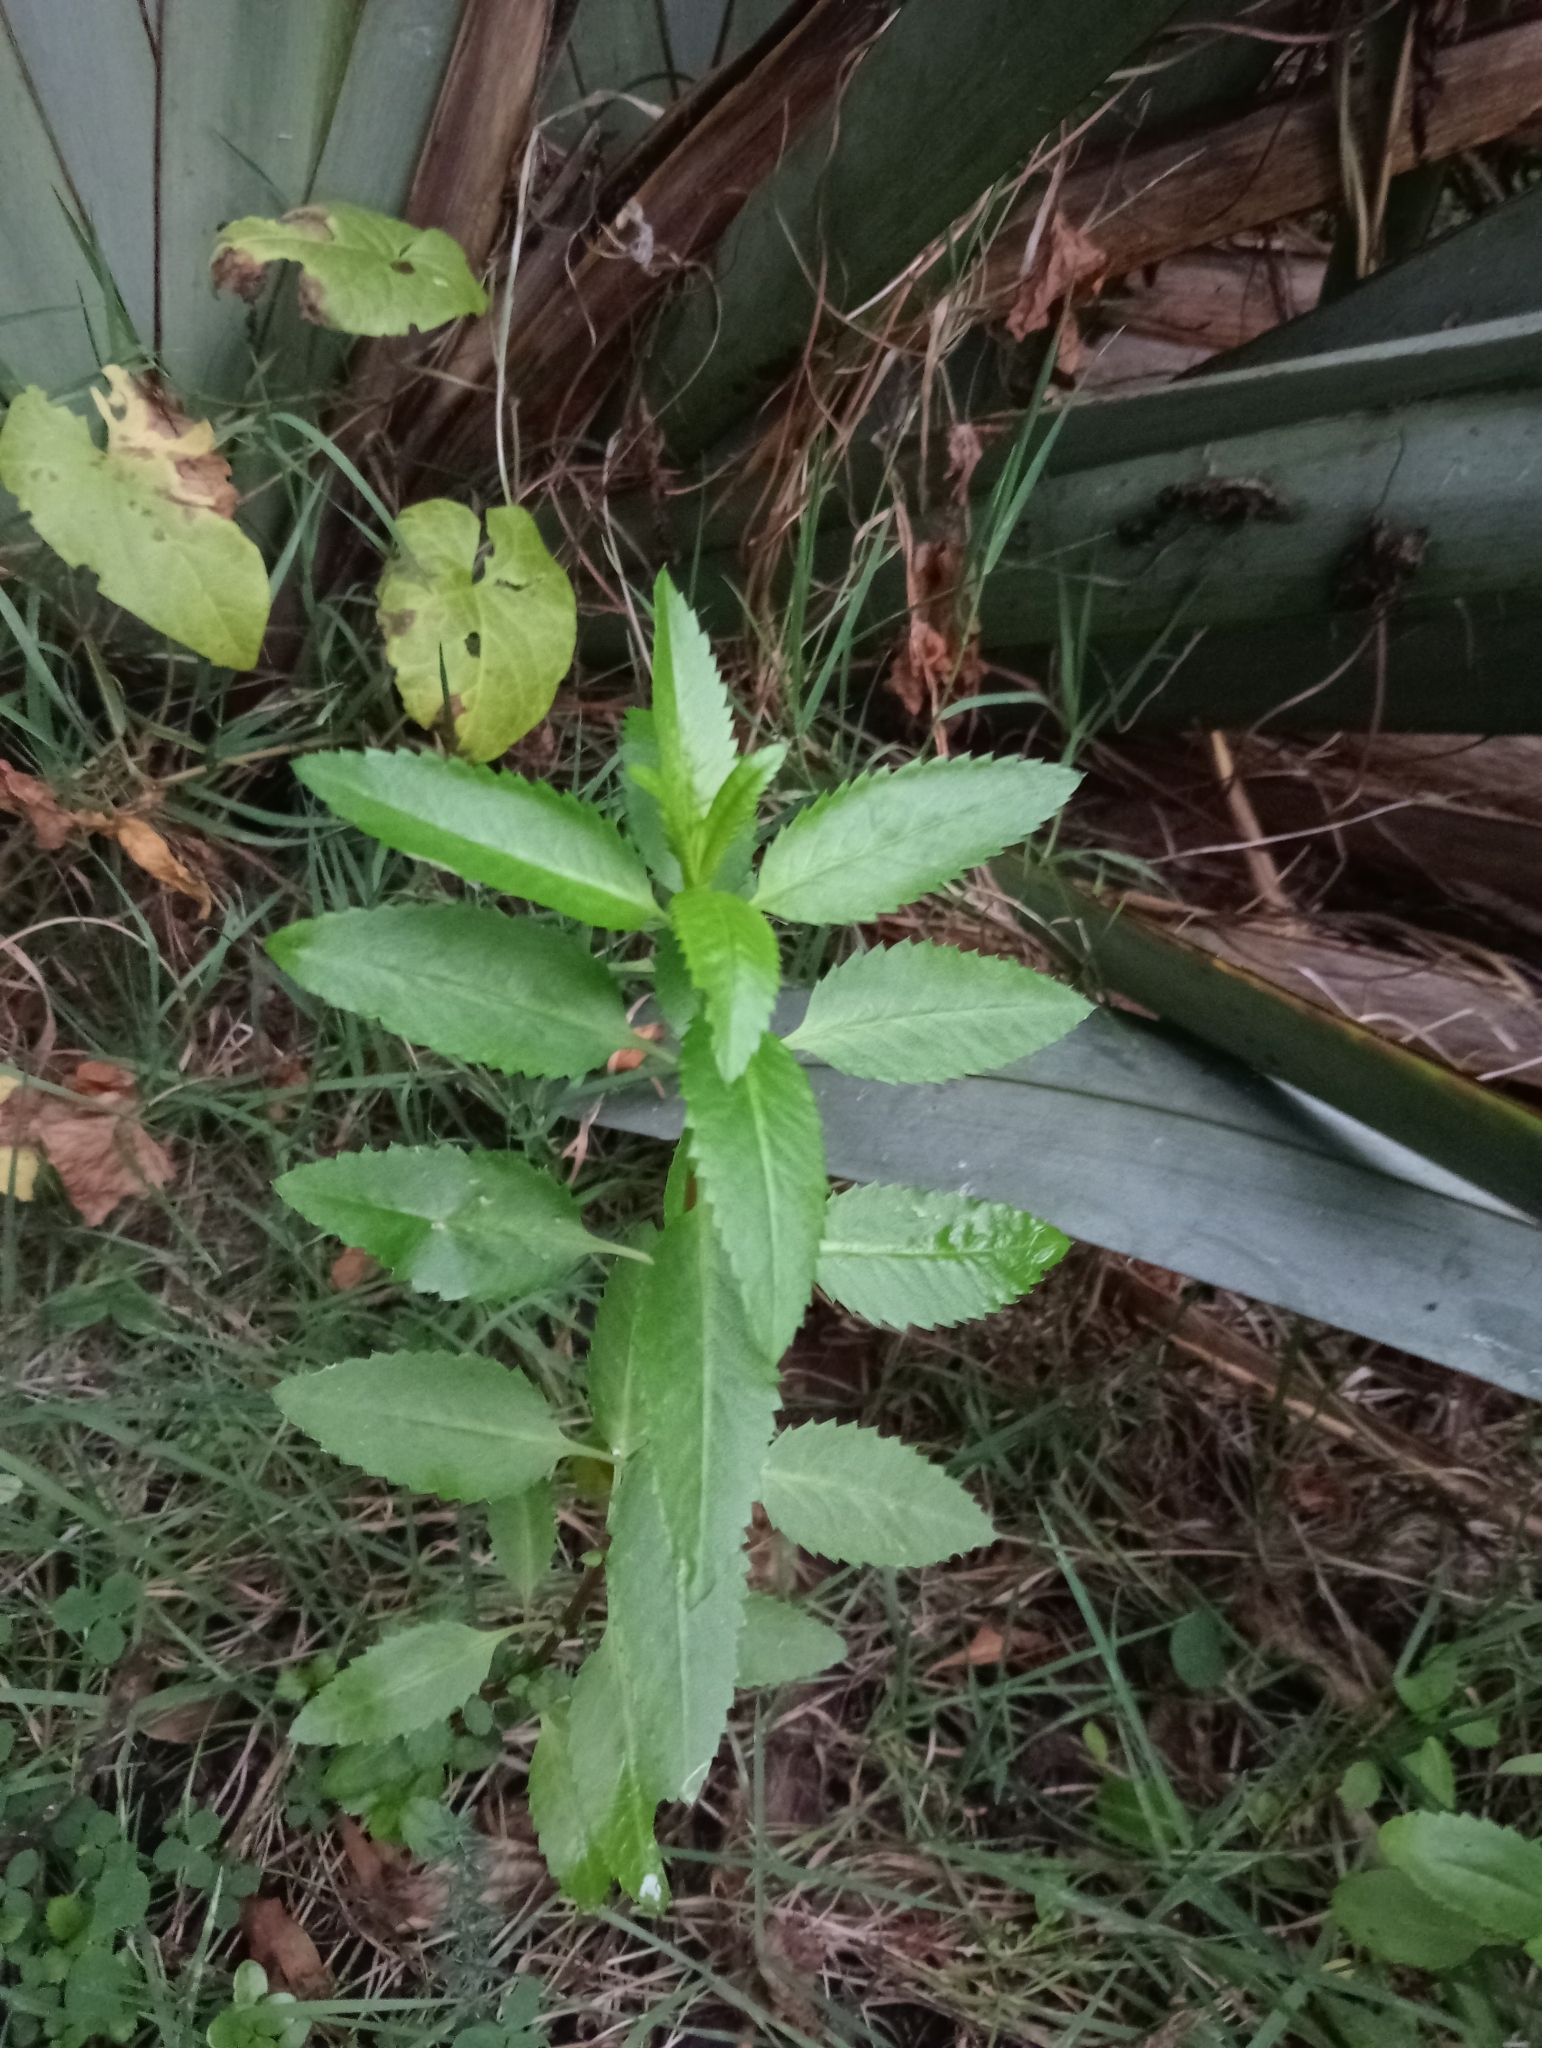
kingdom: Plantae
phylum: Tracheophyta
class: Magnoliopsida
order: Saxifragales
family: Haloragaceae
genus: Haloragis
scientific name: Haloragis erecta
